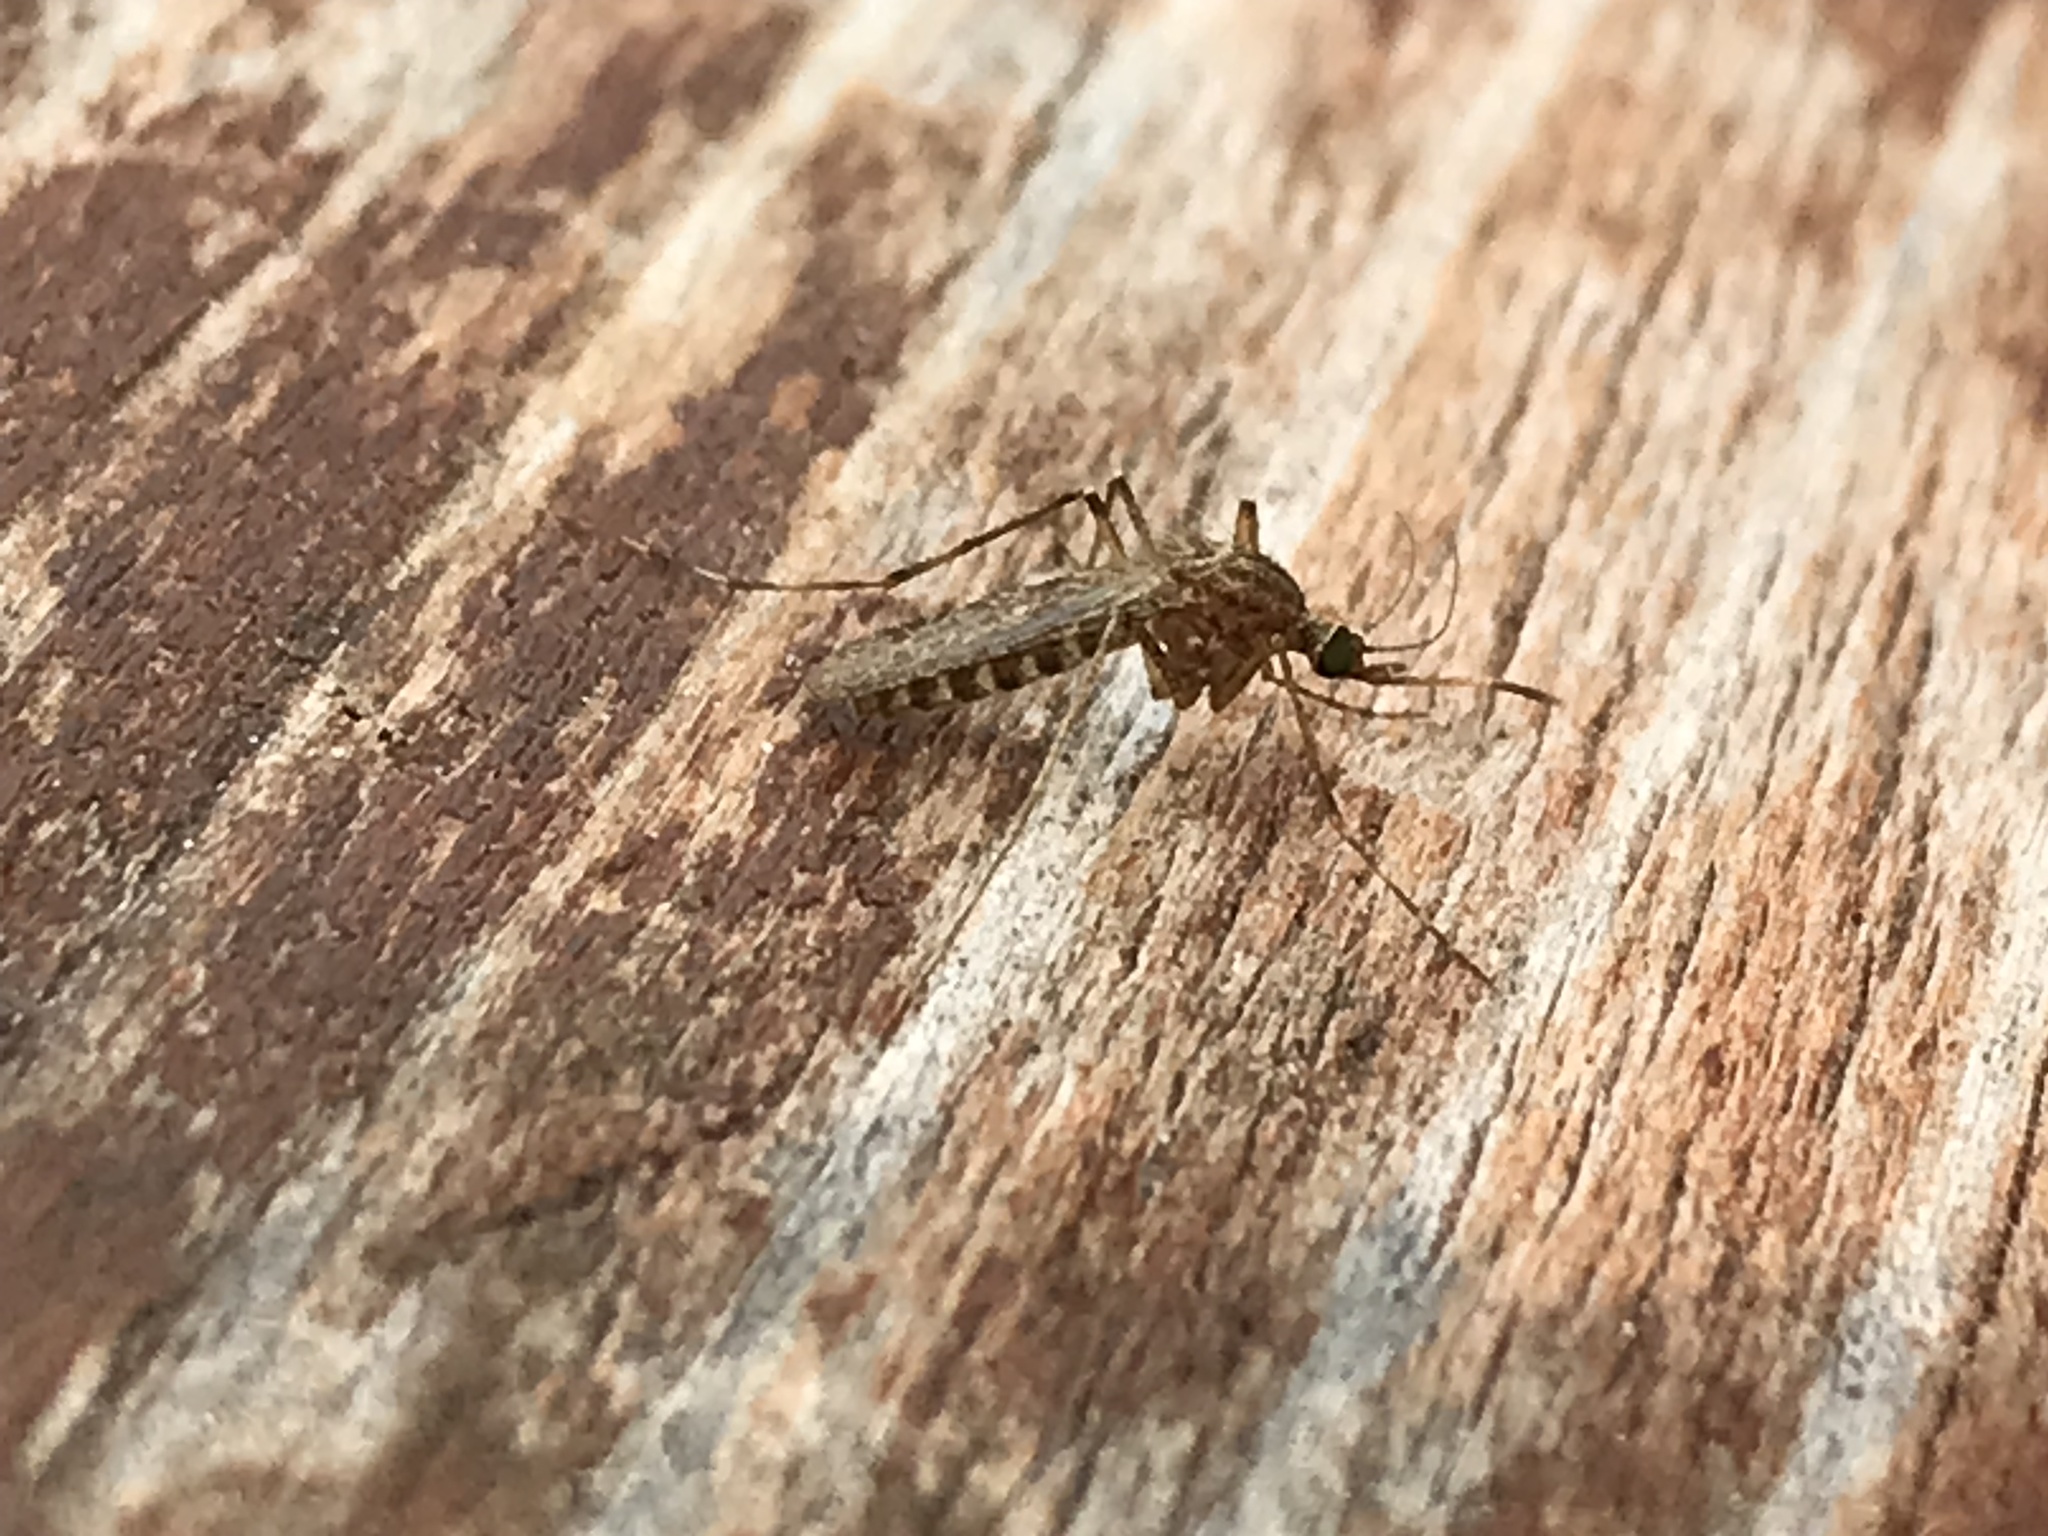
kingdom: Animalia
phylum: Arthropoda
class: Insecta
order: Diptera
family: Culicidae
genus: Coquillettidia
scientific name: Coquillettidia perturbans
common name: Cattail mosquito
